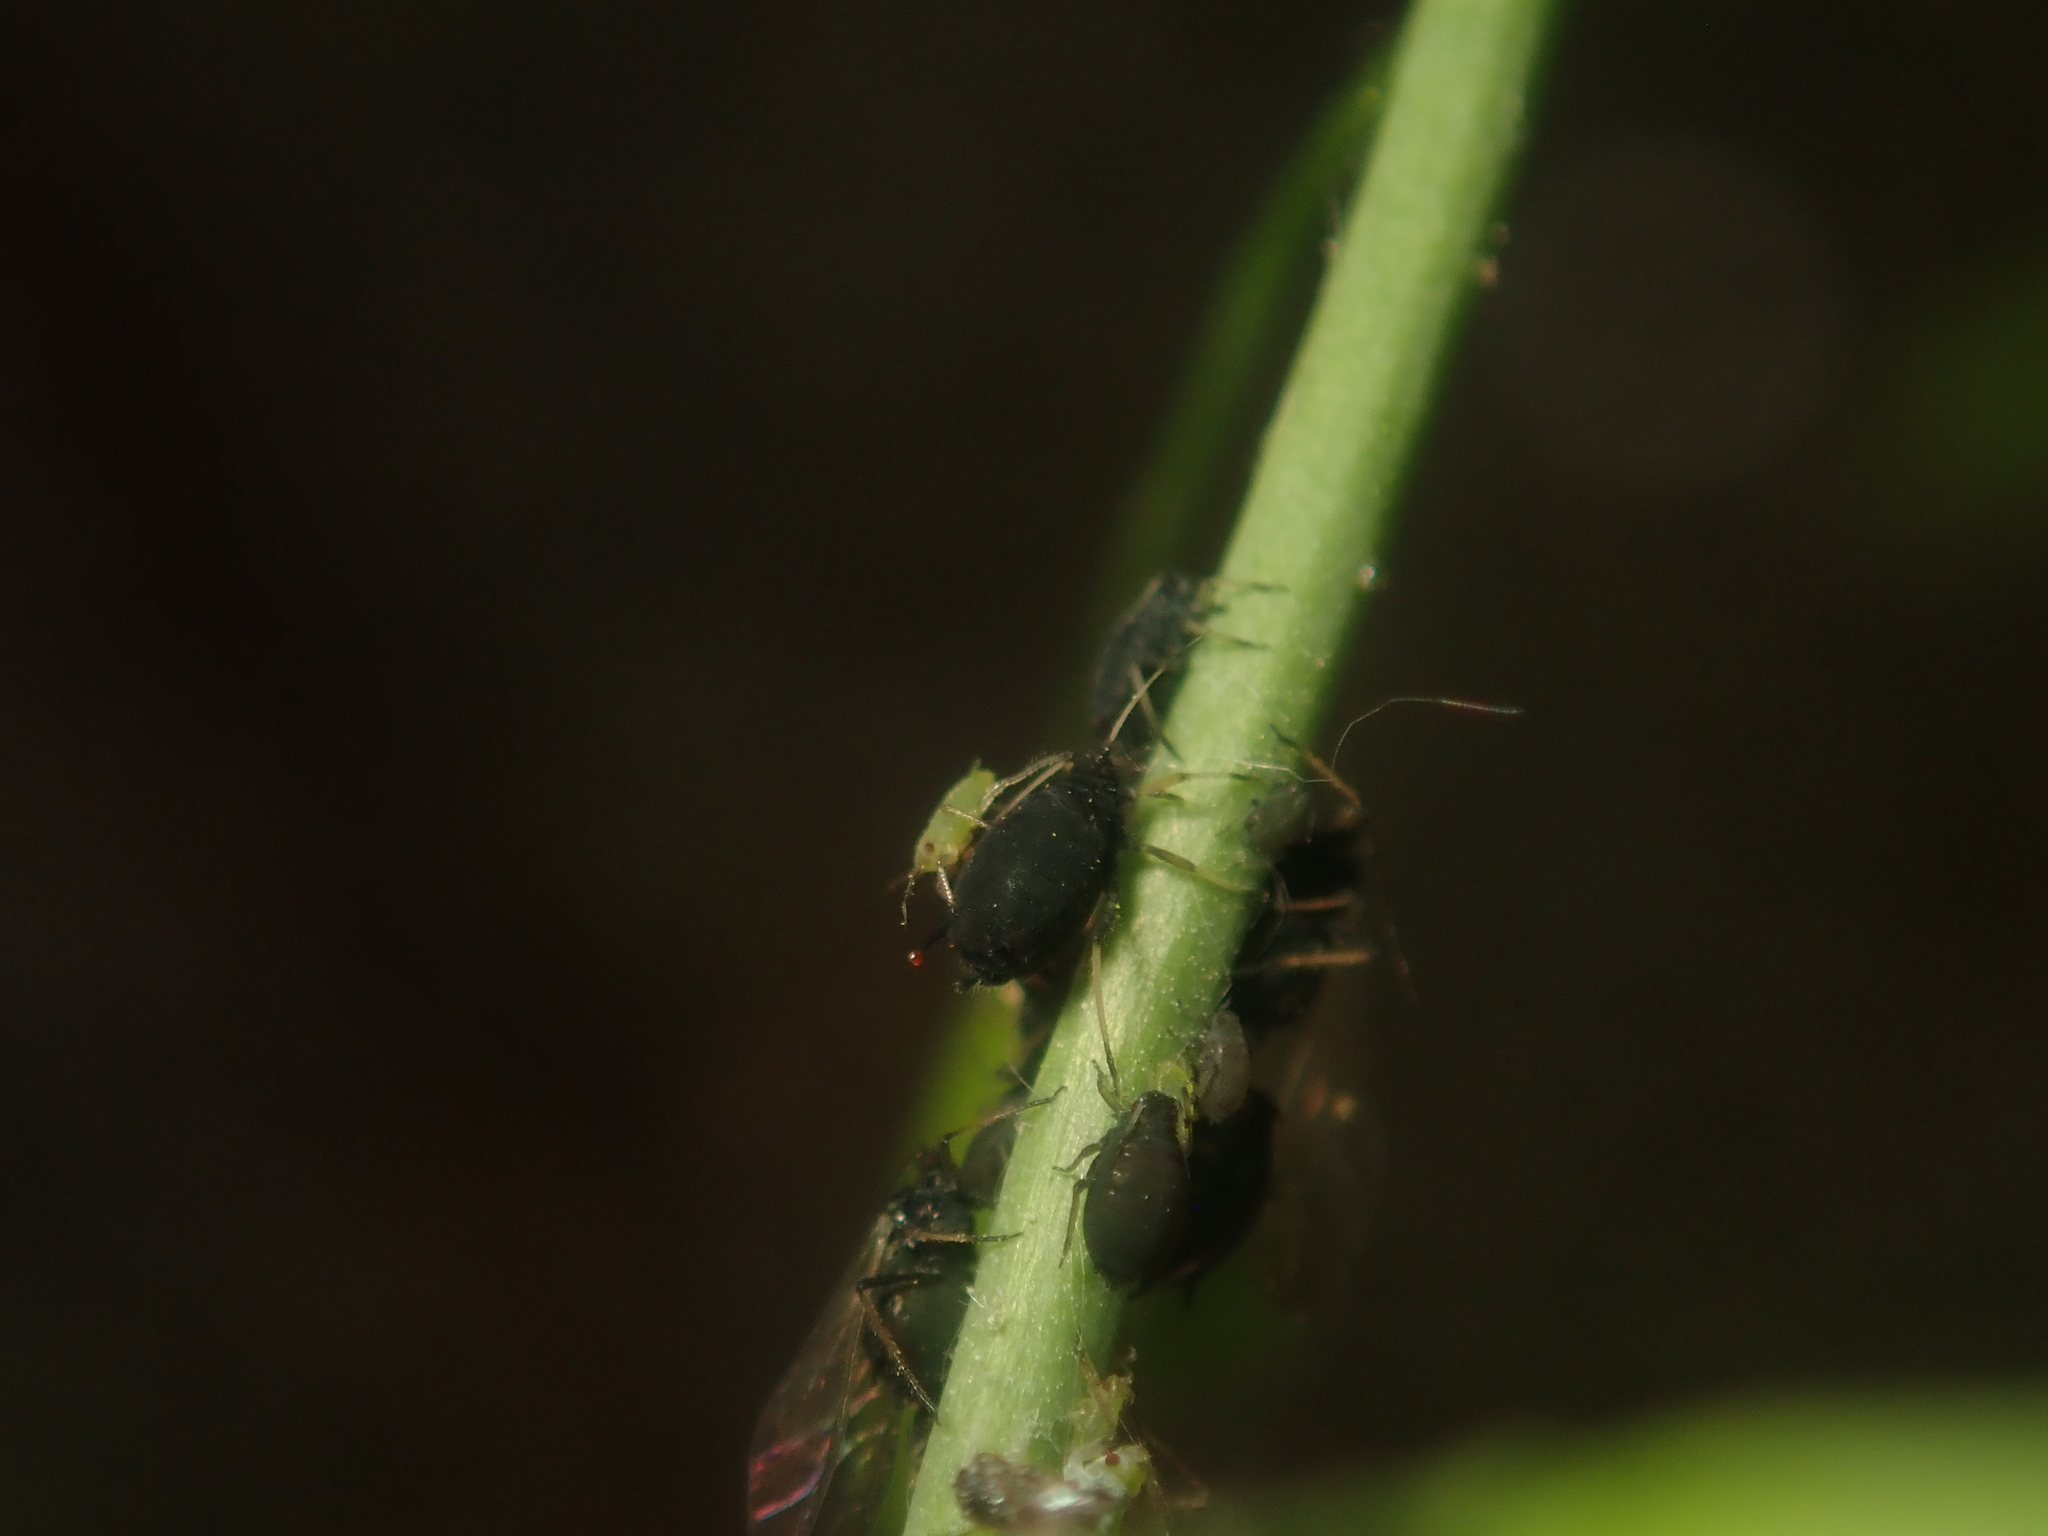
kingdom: Animalia
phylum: Arthropoda
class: Insecta
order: Hemiptera
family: Aphididae
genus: Aphis
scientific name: Aphis fabae
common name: Bean aphid
